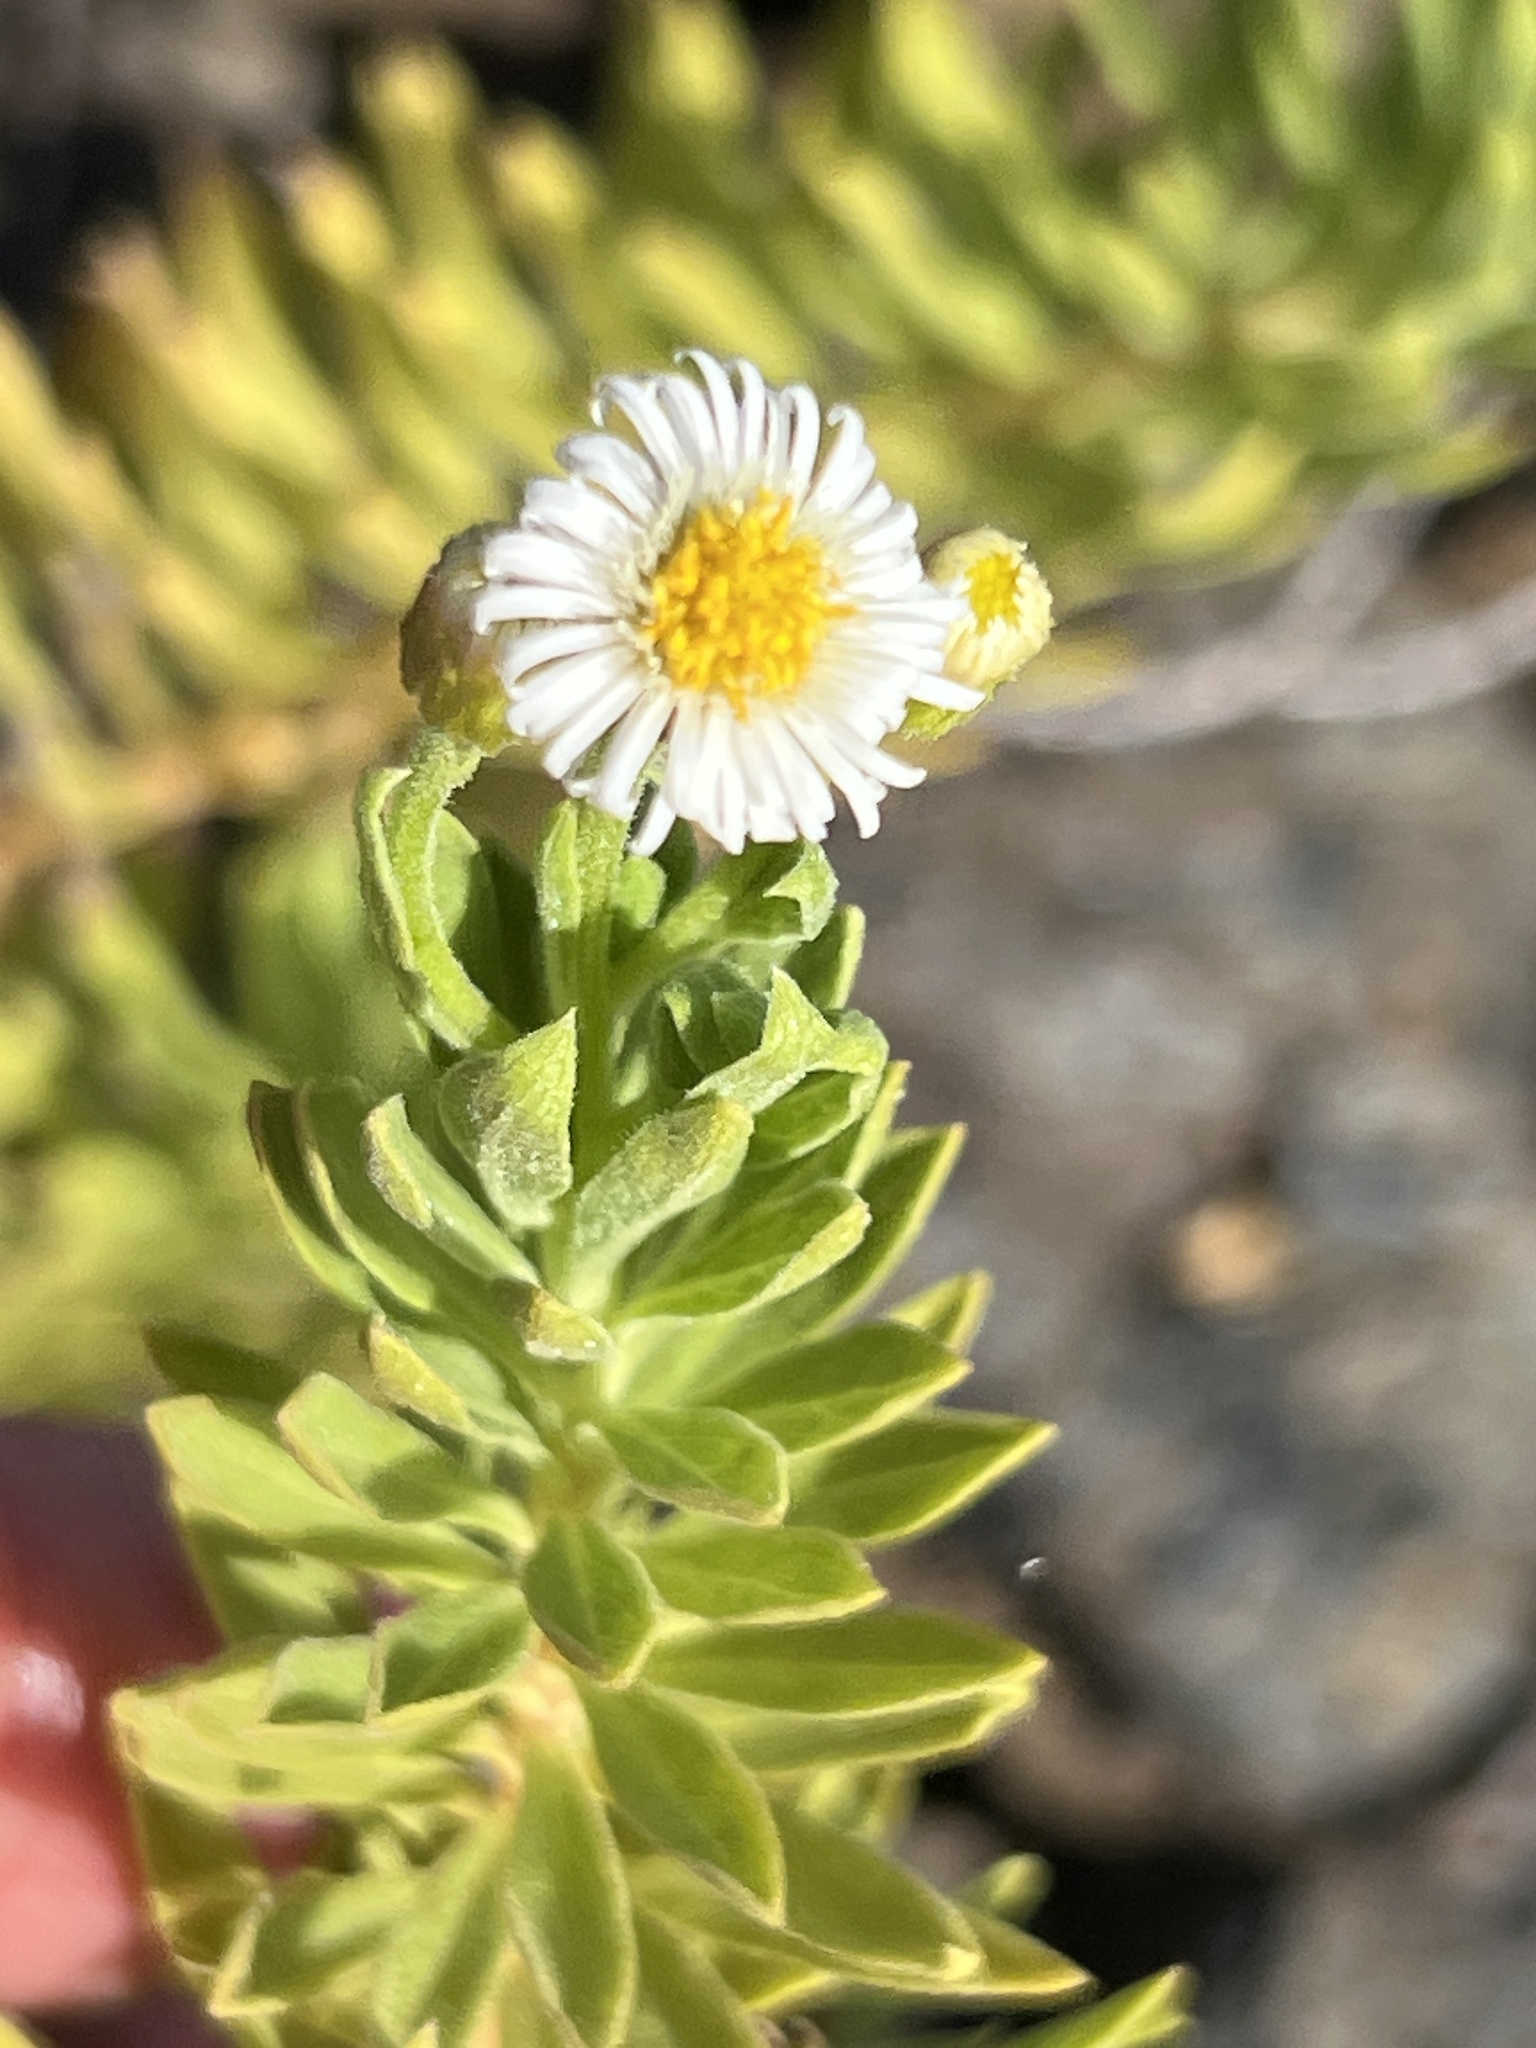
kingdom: Plantae
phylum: Tracheophyta
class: Magnoliopsida
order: Asterales
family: Asteraceae
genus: Erigeron
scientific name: Erigeron lancifolius
